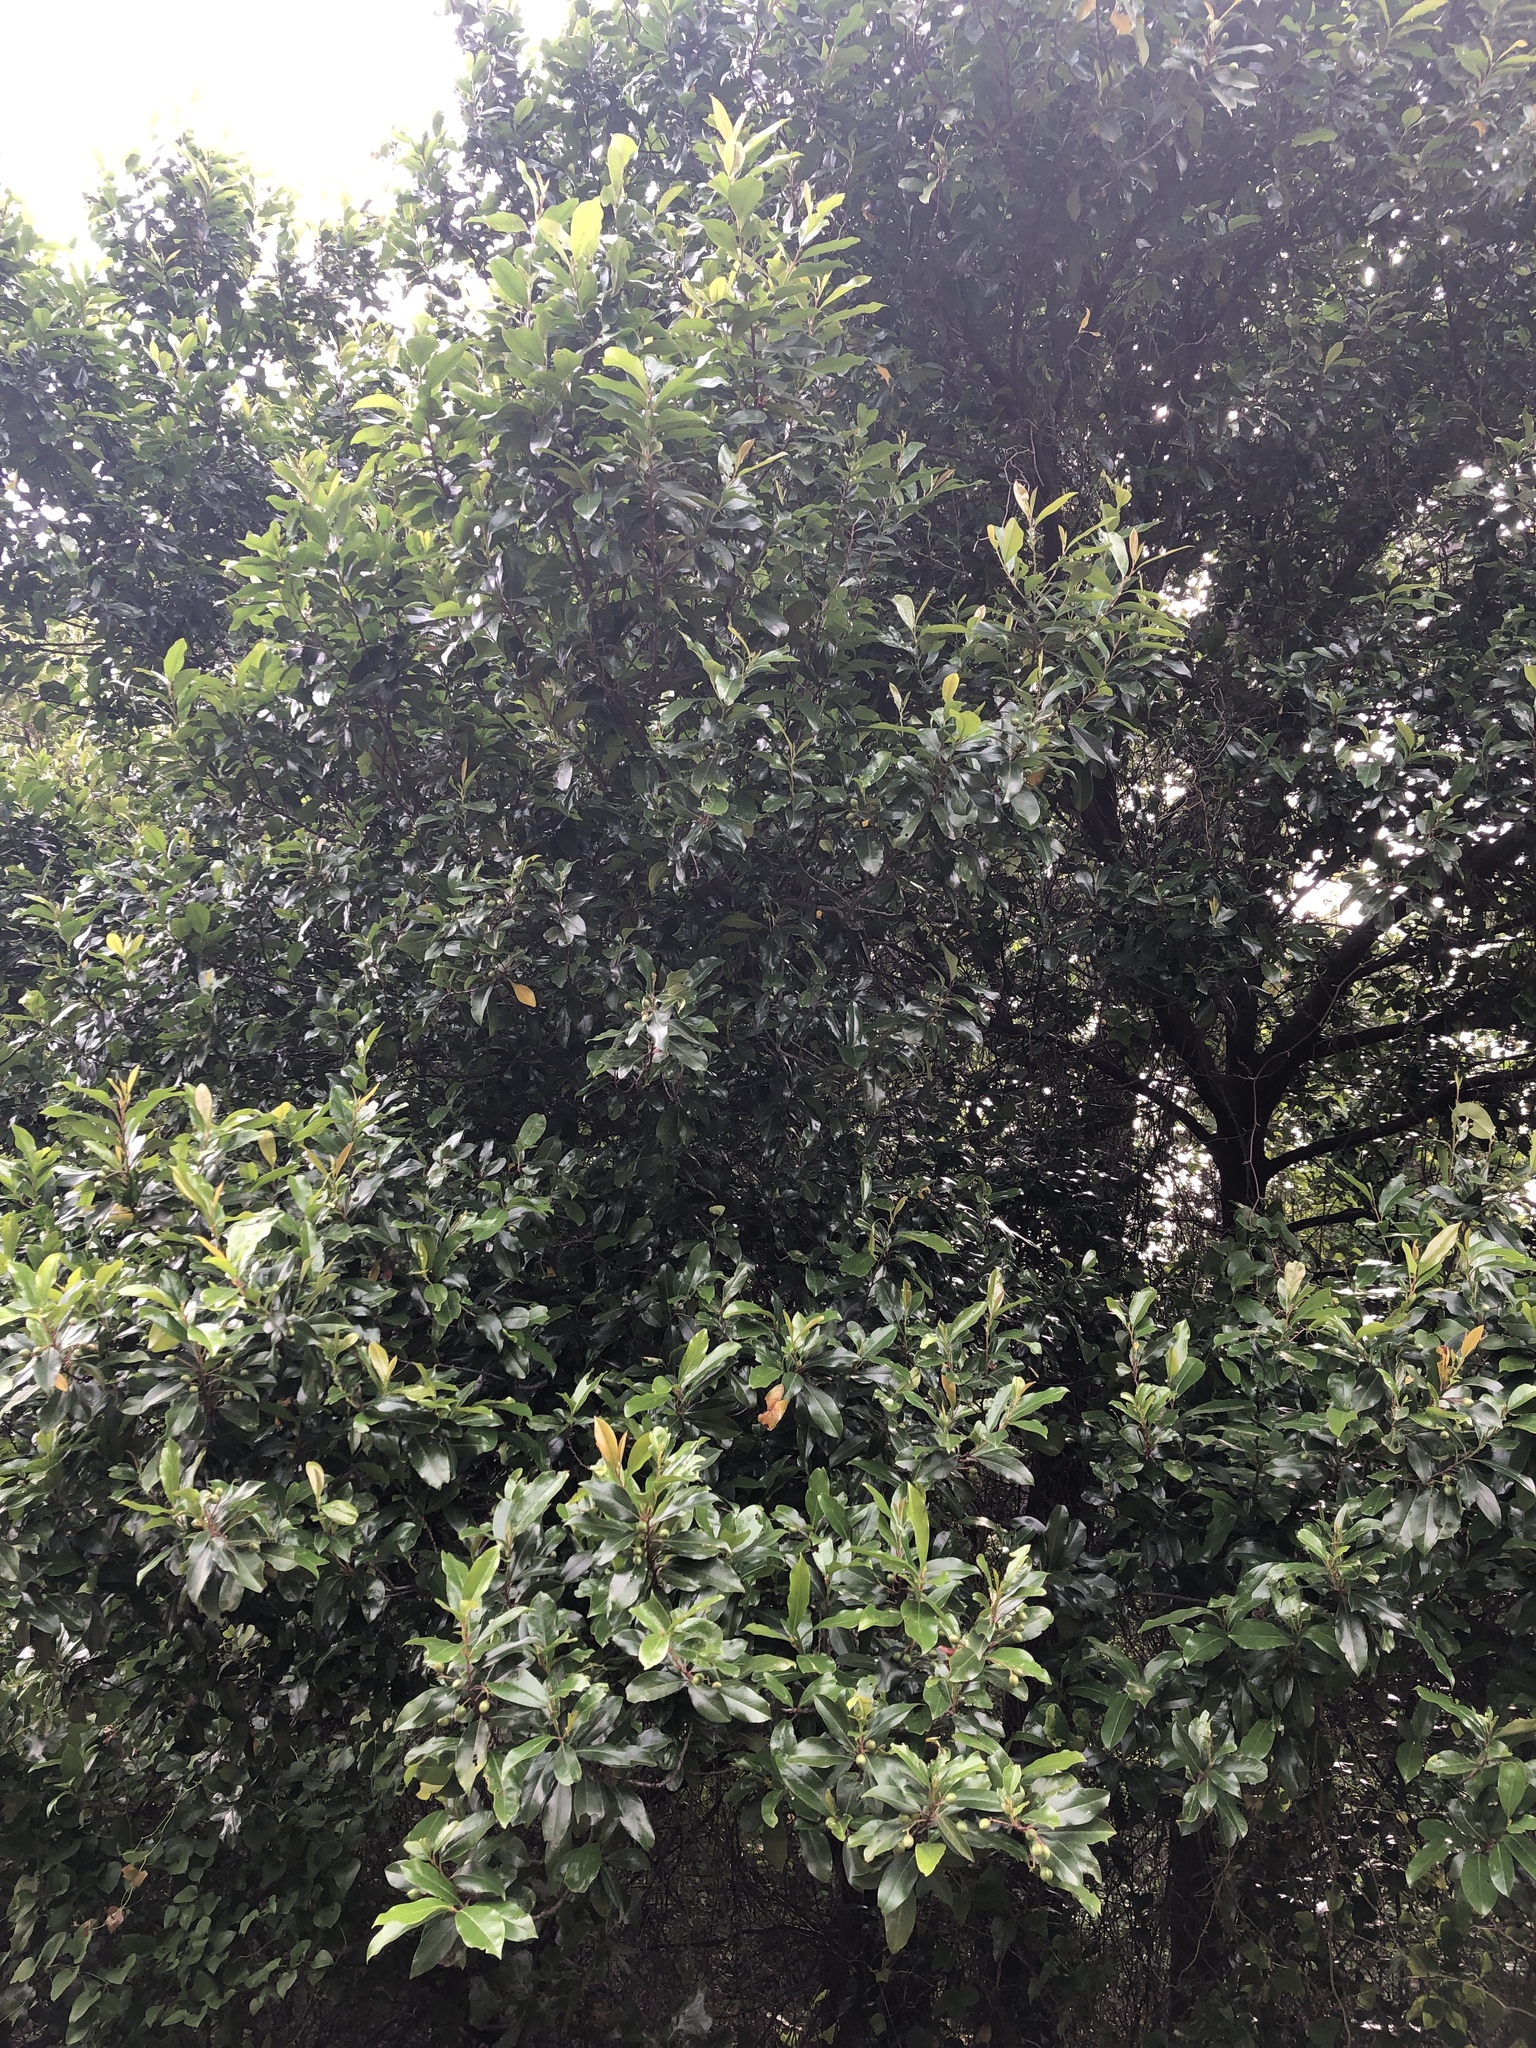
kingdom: Plantae
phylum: Tracheophyta
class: Magnoliopsida
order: Rosales
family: Rosaceae
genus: Prunus
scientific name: Prunus caroliniana
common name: Carolina laurel cherry
